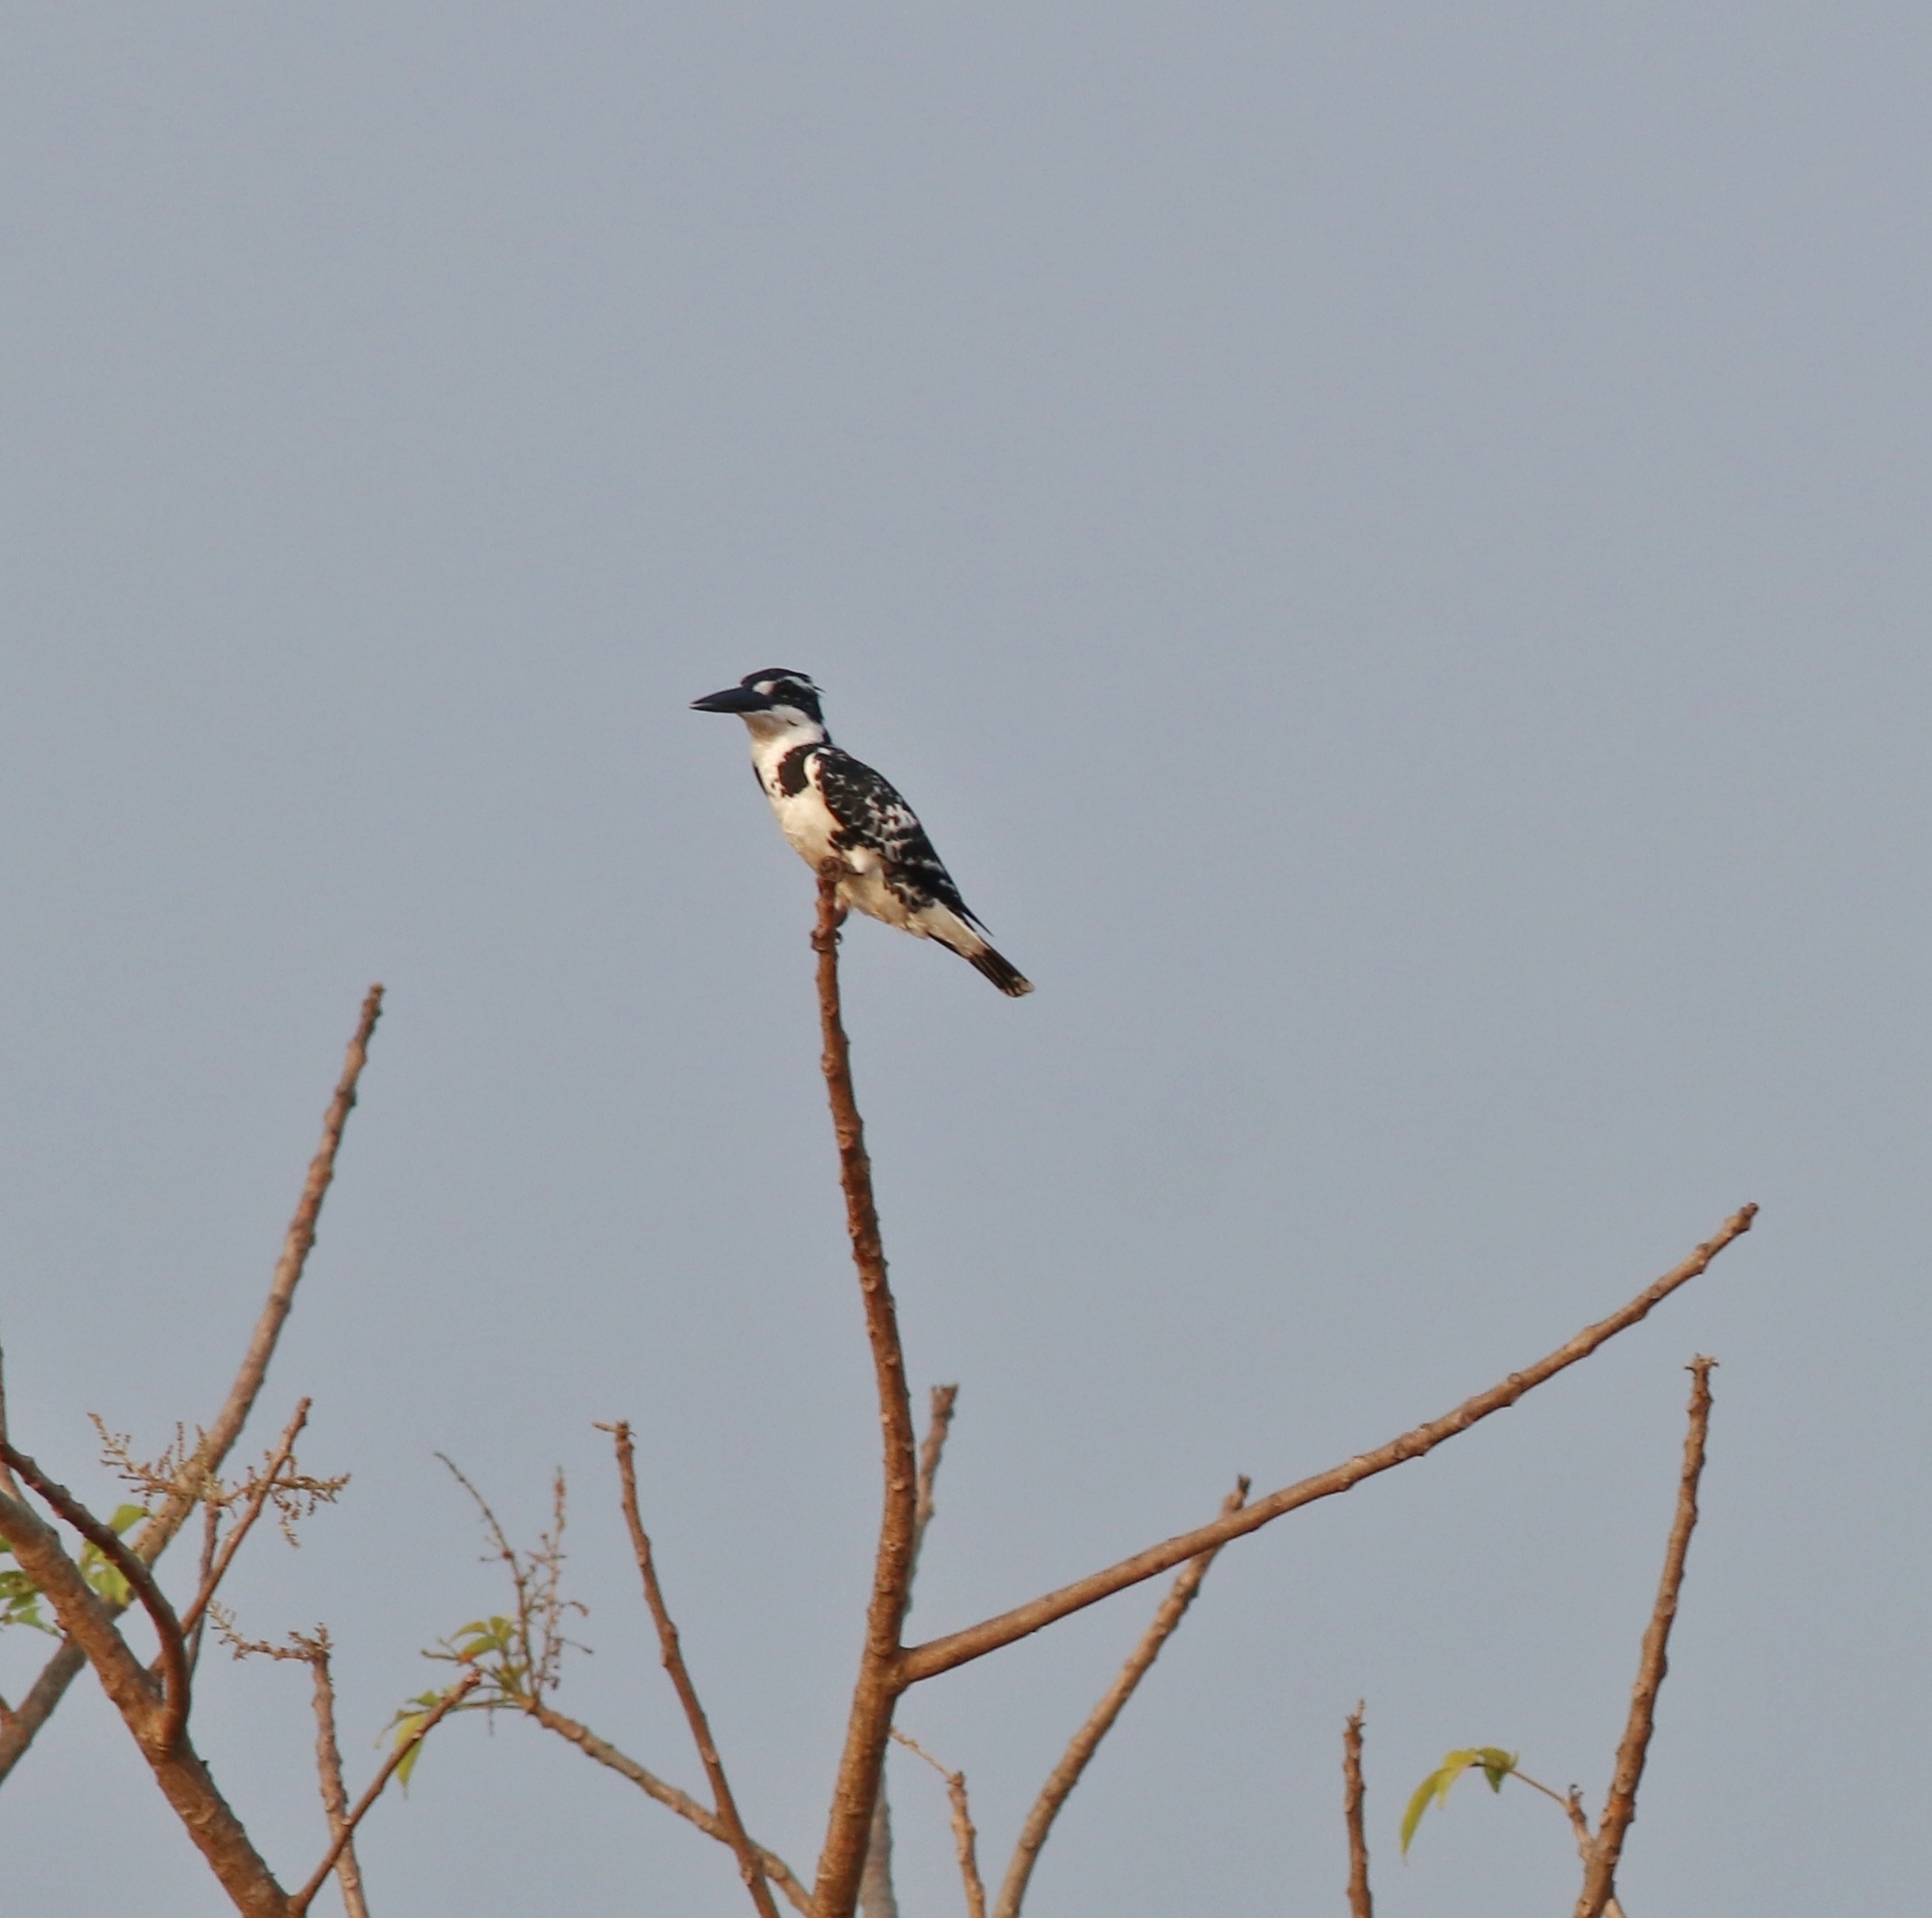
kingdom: Animalia
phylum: Chordata
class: Aves
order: Coraciiformes
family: Alcedinidae
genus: Ceryle
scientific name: Ceryle rudis
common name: Pied kingfisher
